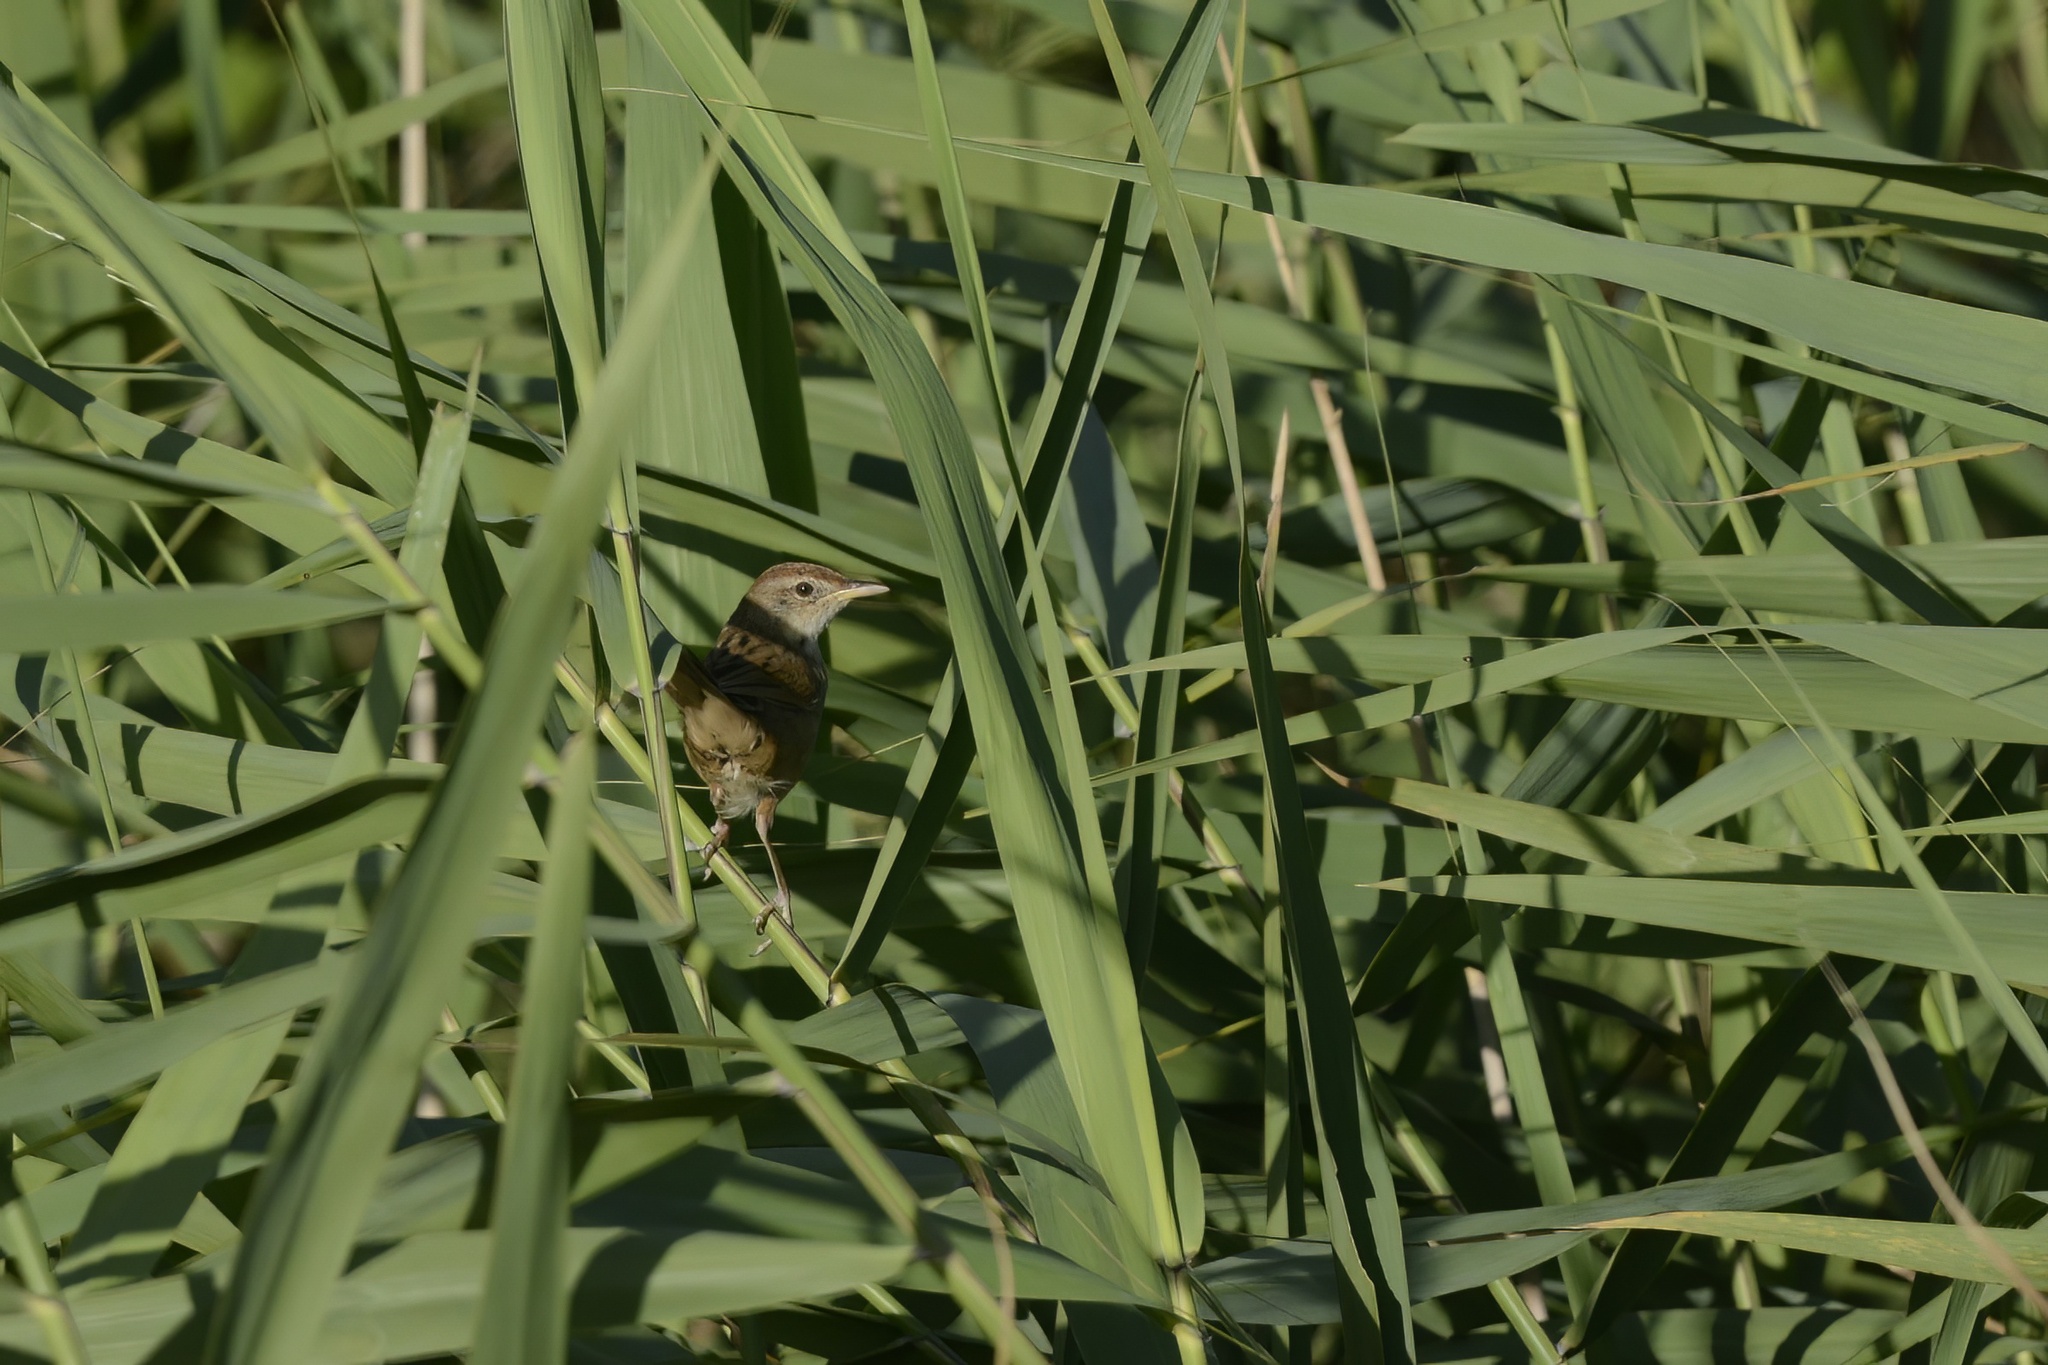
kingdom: Animalia
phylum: Chordata
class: Aves
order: Passeriformes
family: Locustellidae
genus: Megalurus
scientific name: Megalurus timoriensis
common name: Tawny grassbird
